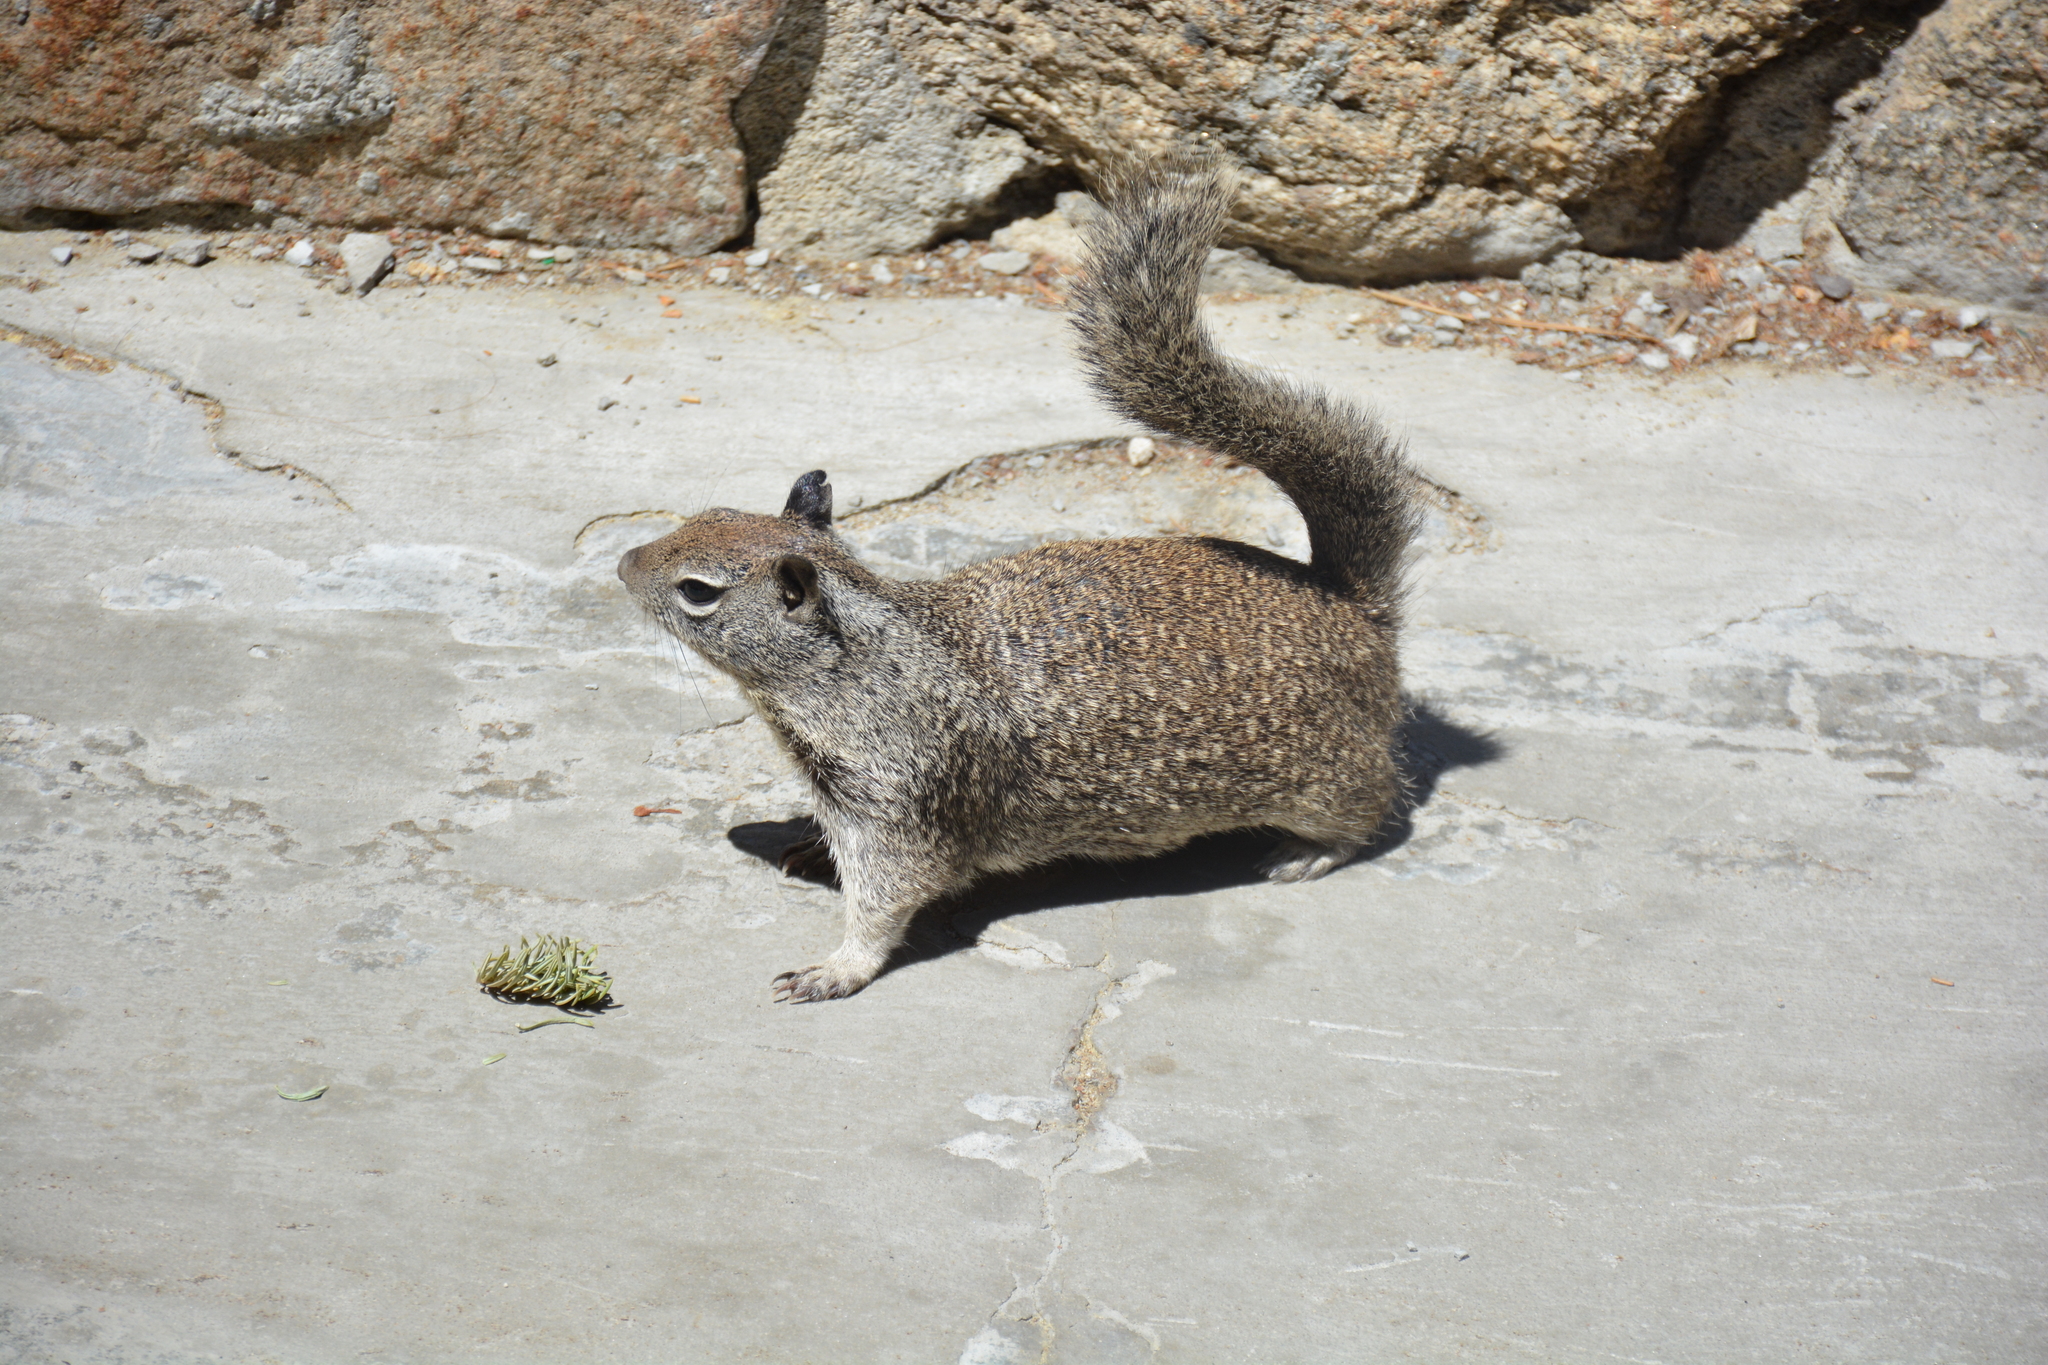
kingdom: Animalia
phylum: Chordata
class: Mammalia
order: Rodentia
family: Sciuridae
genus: Otospermophilus
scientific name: Otospermophilus beecheyi
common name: California ground squirrel
